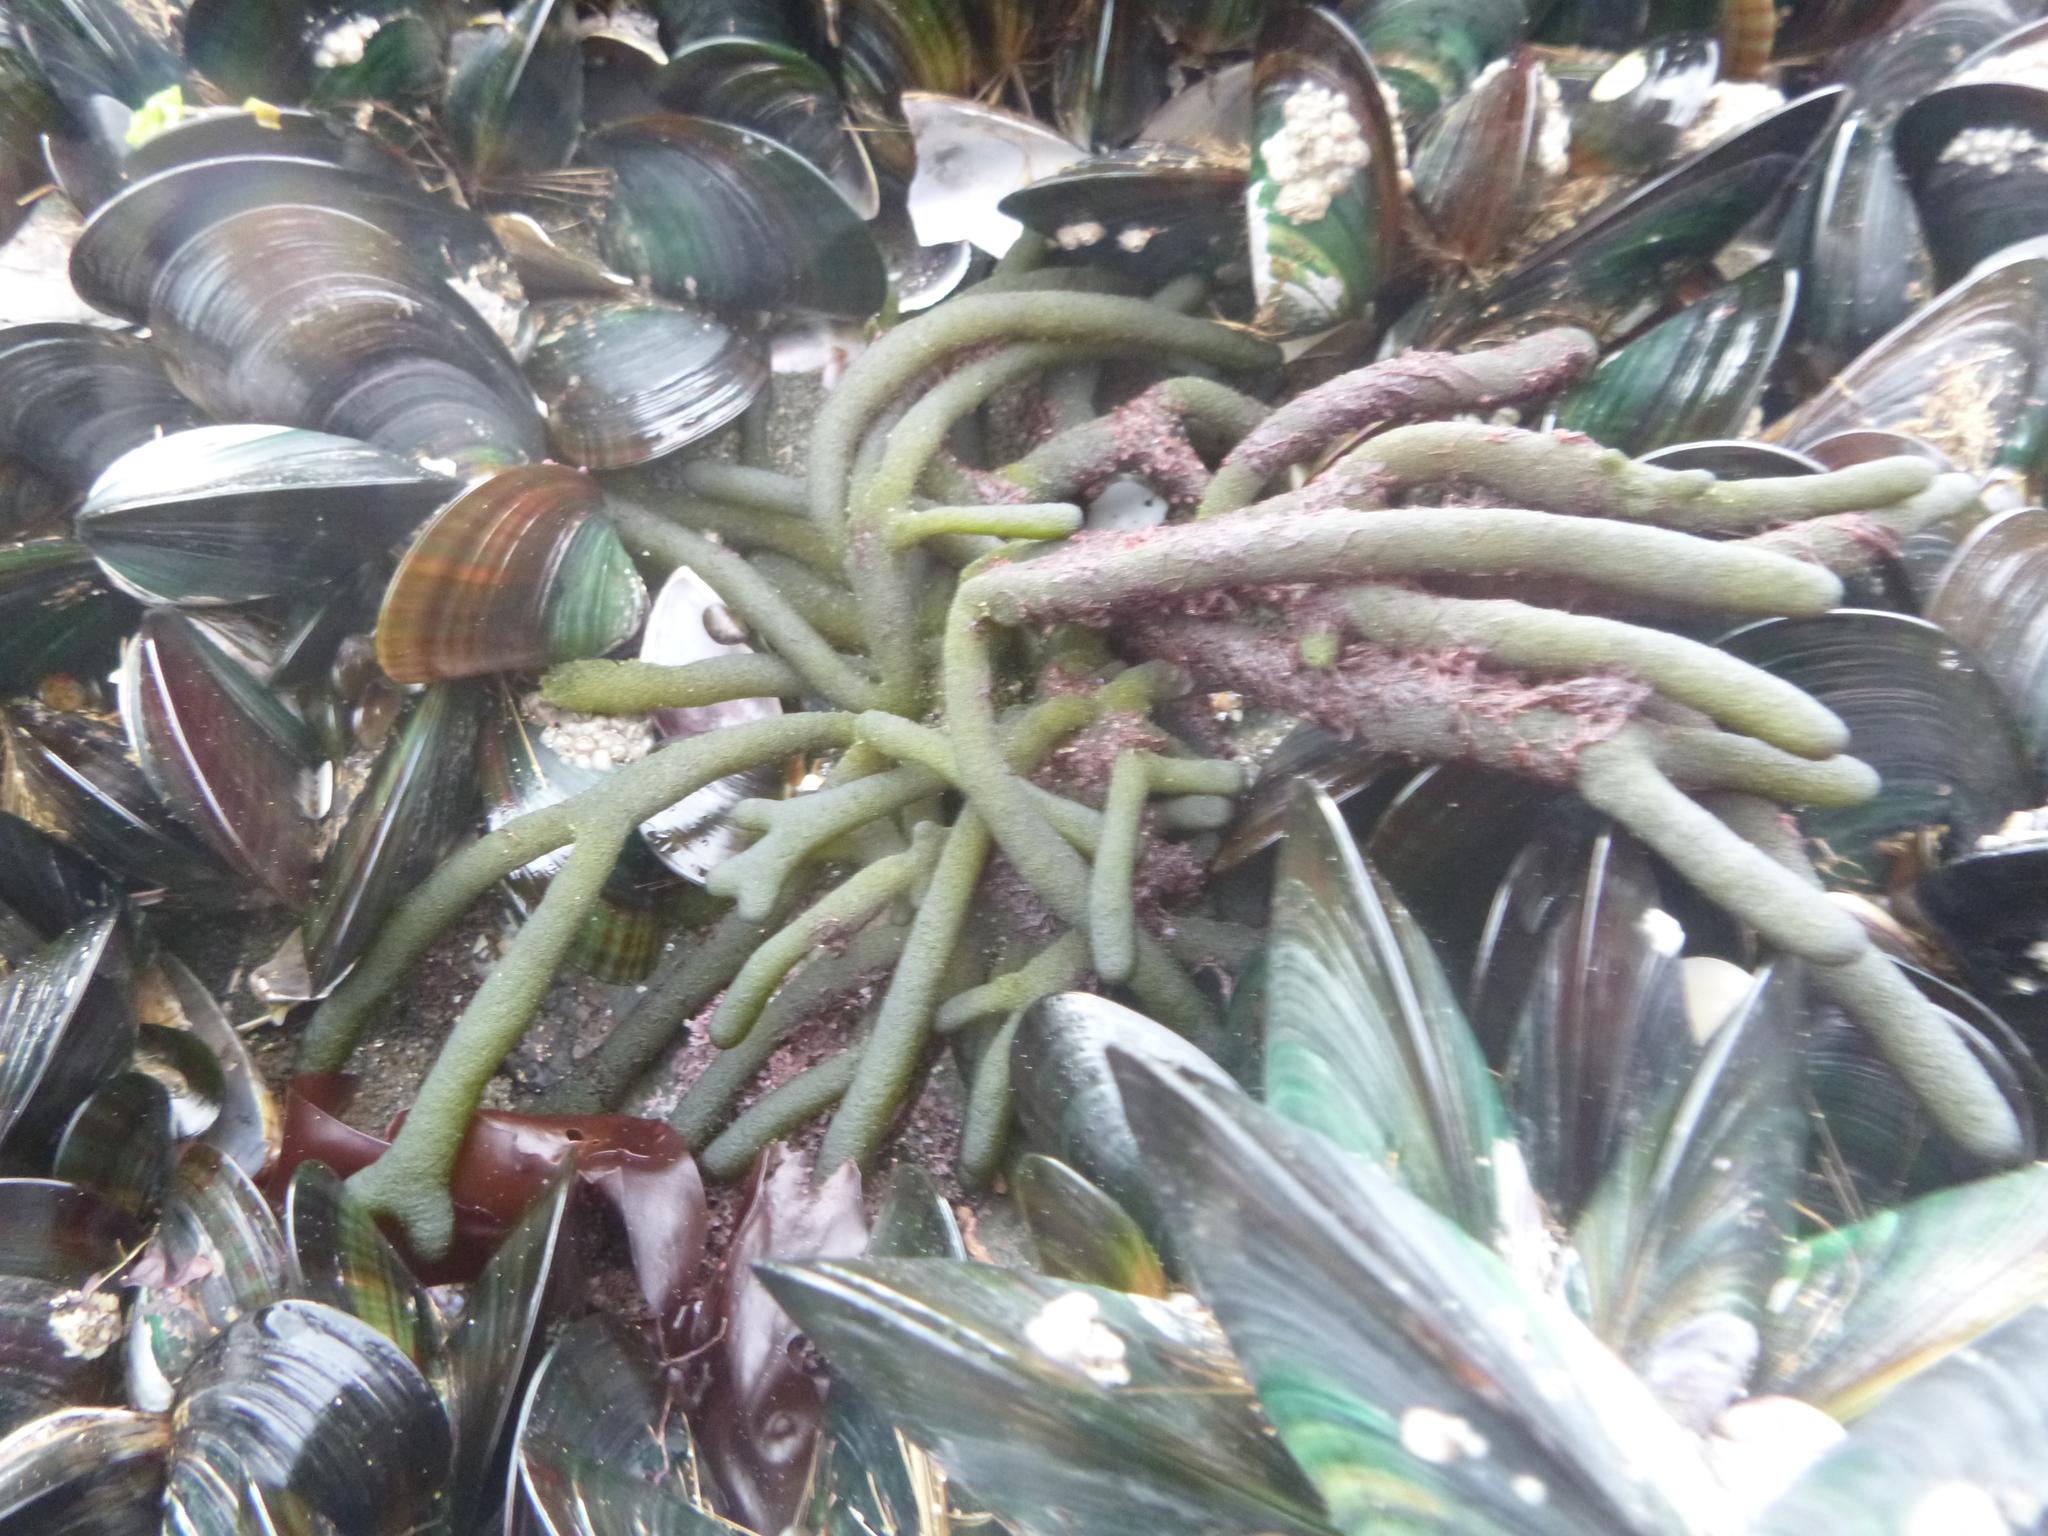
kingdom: Plantae
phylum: Chlorophyta
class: Ulvophyceae
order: Bryopsidales
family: Codiaceae
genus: Codium
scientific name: Codium fragile
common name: Dead man's fingers
